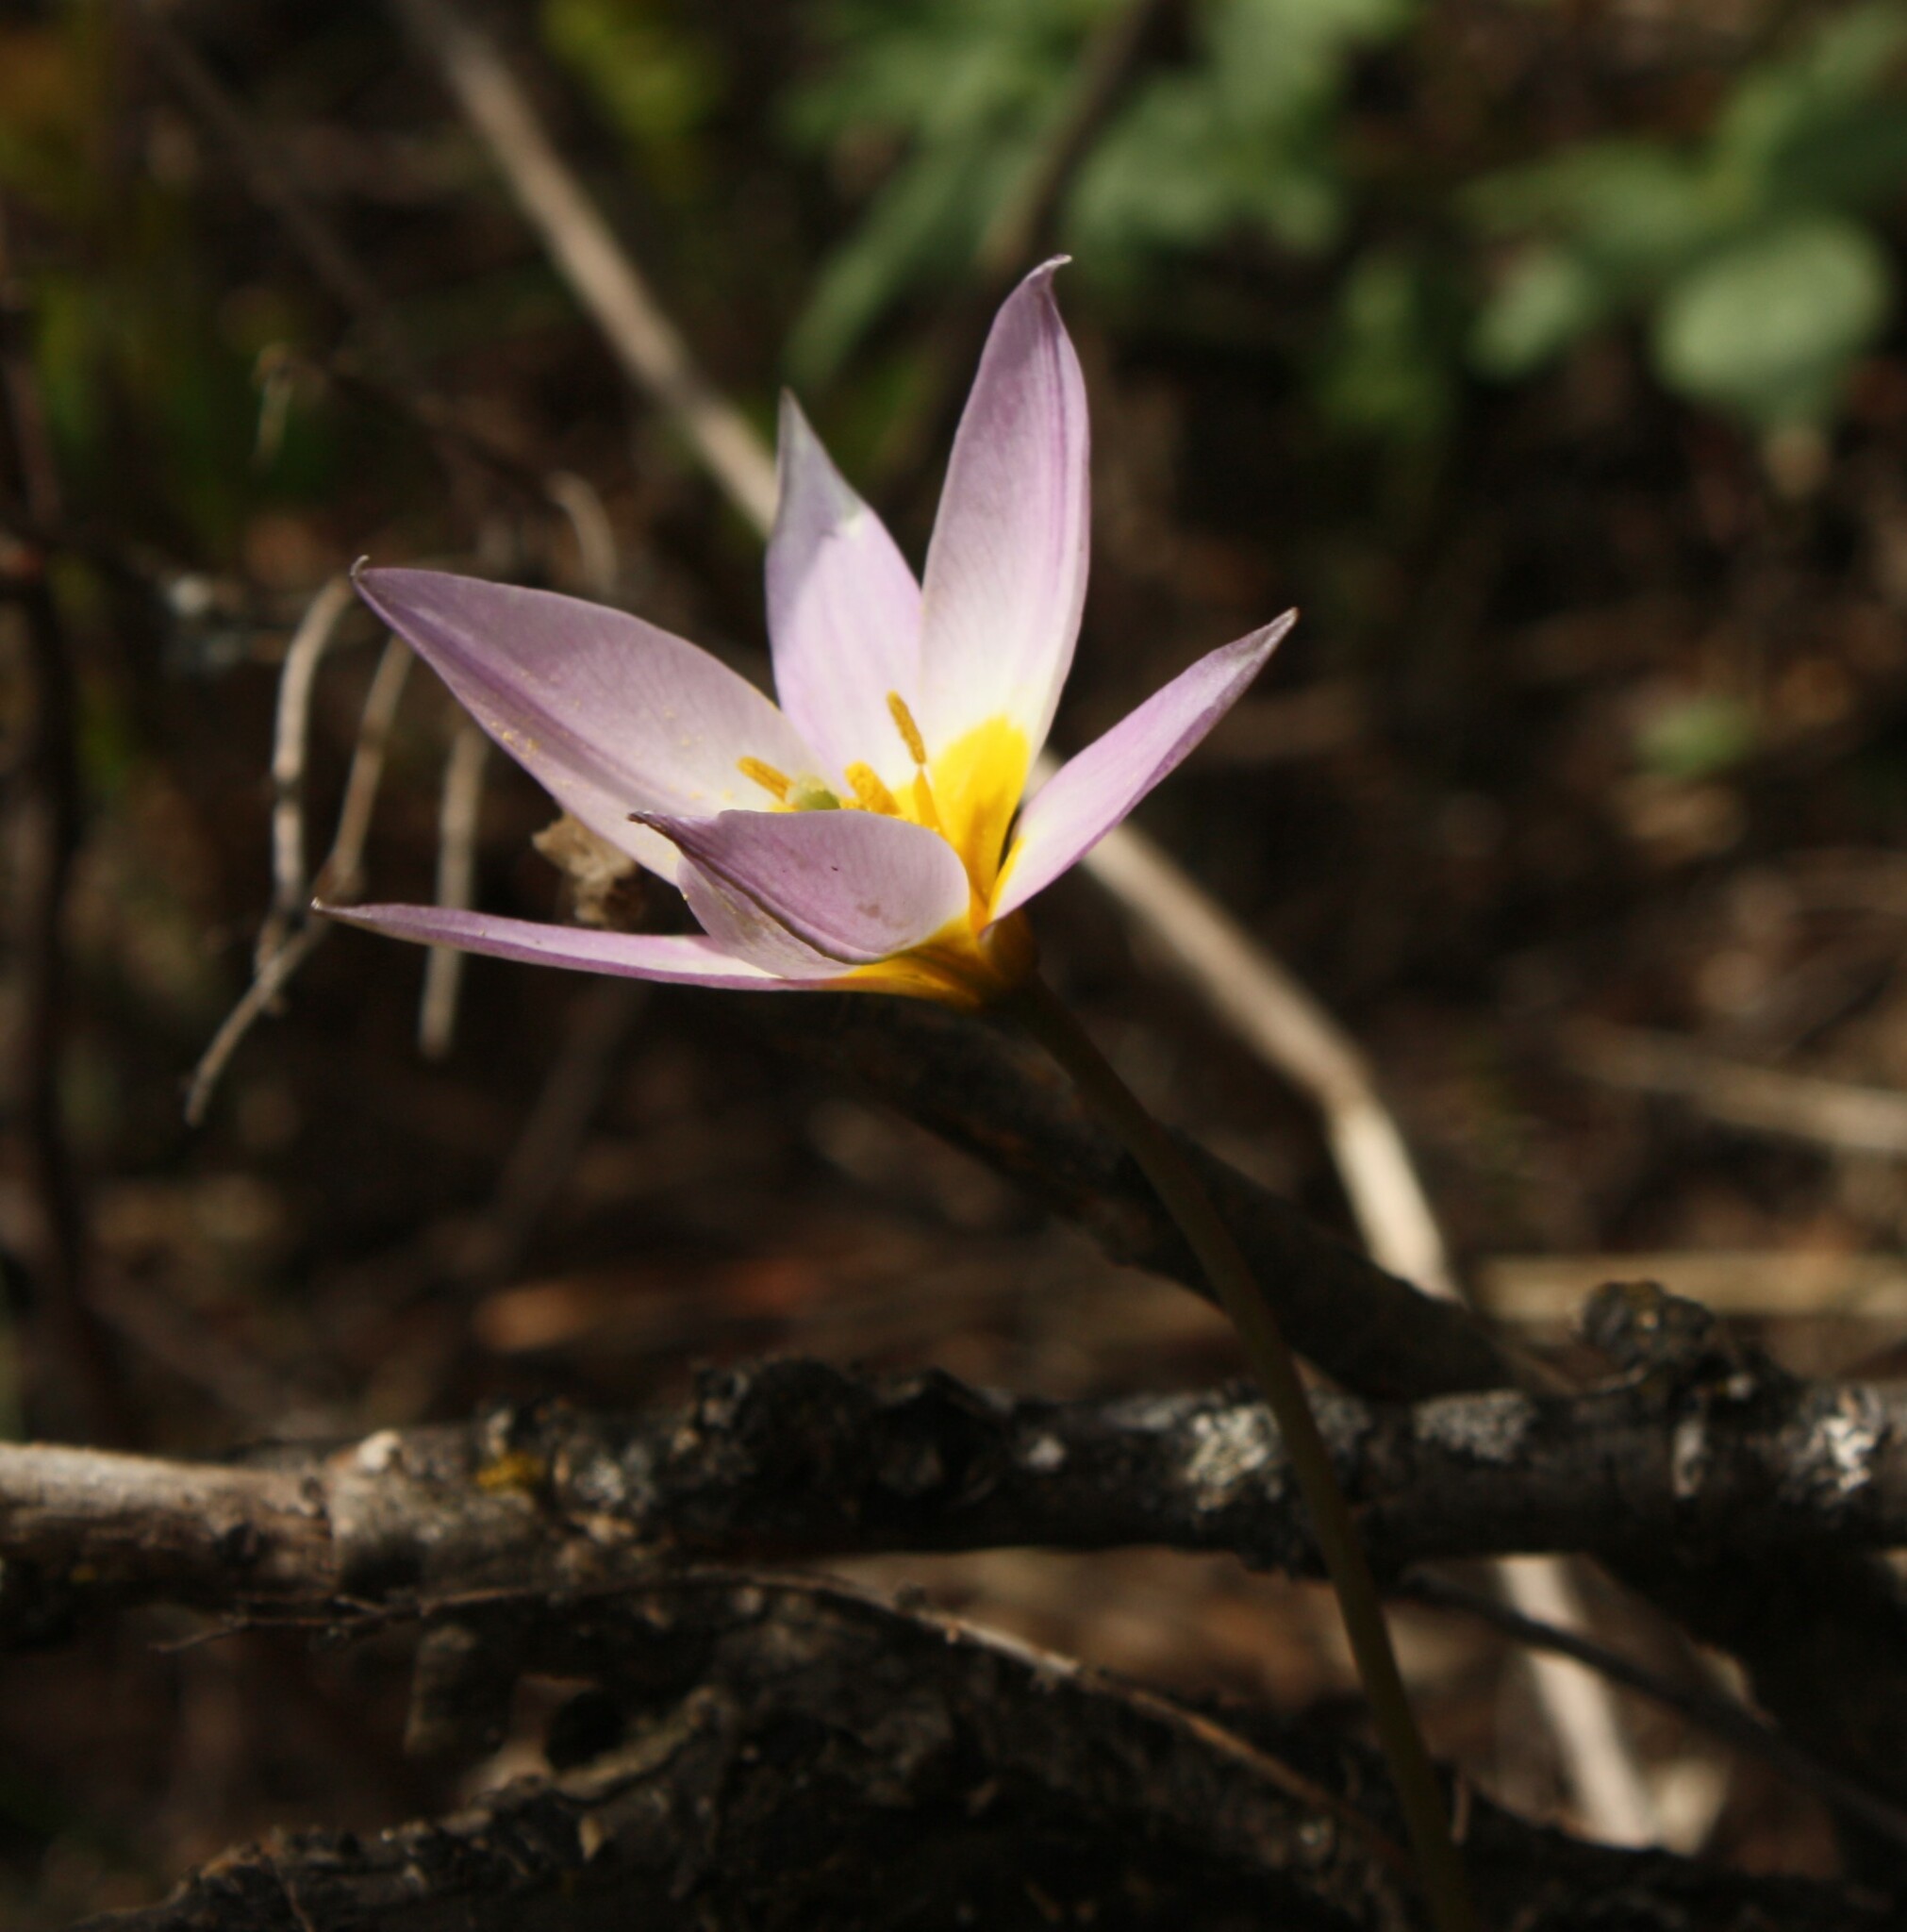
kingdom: Plantae
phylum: Tracheophyta
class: Liliopsida
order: Liliales
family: Liliaceae
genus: Tulipa
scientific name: Tulipa patens
